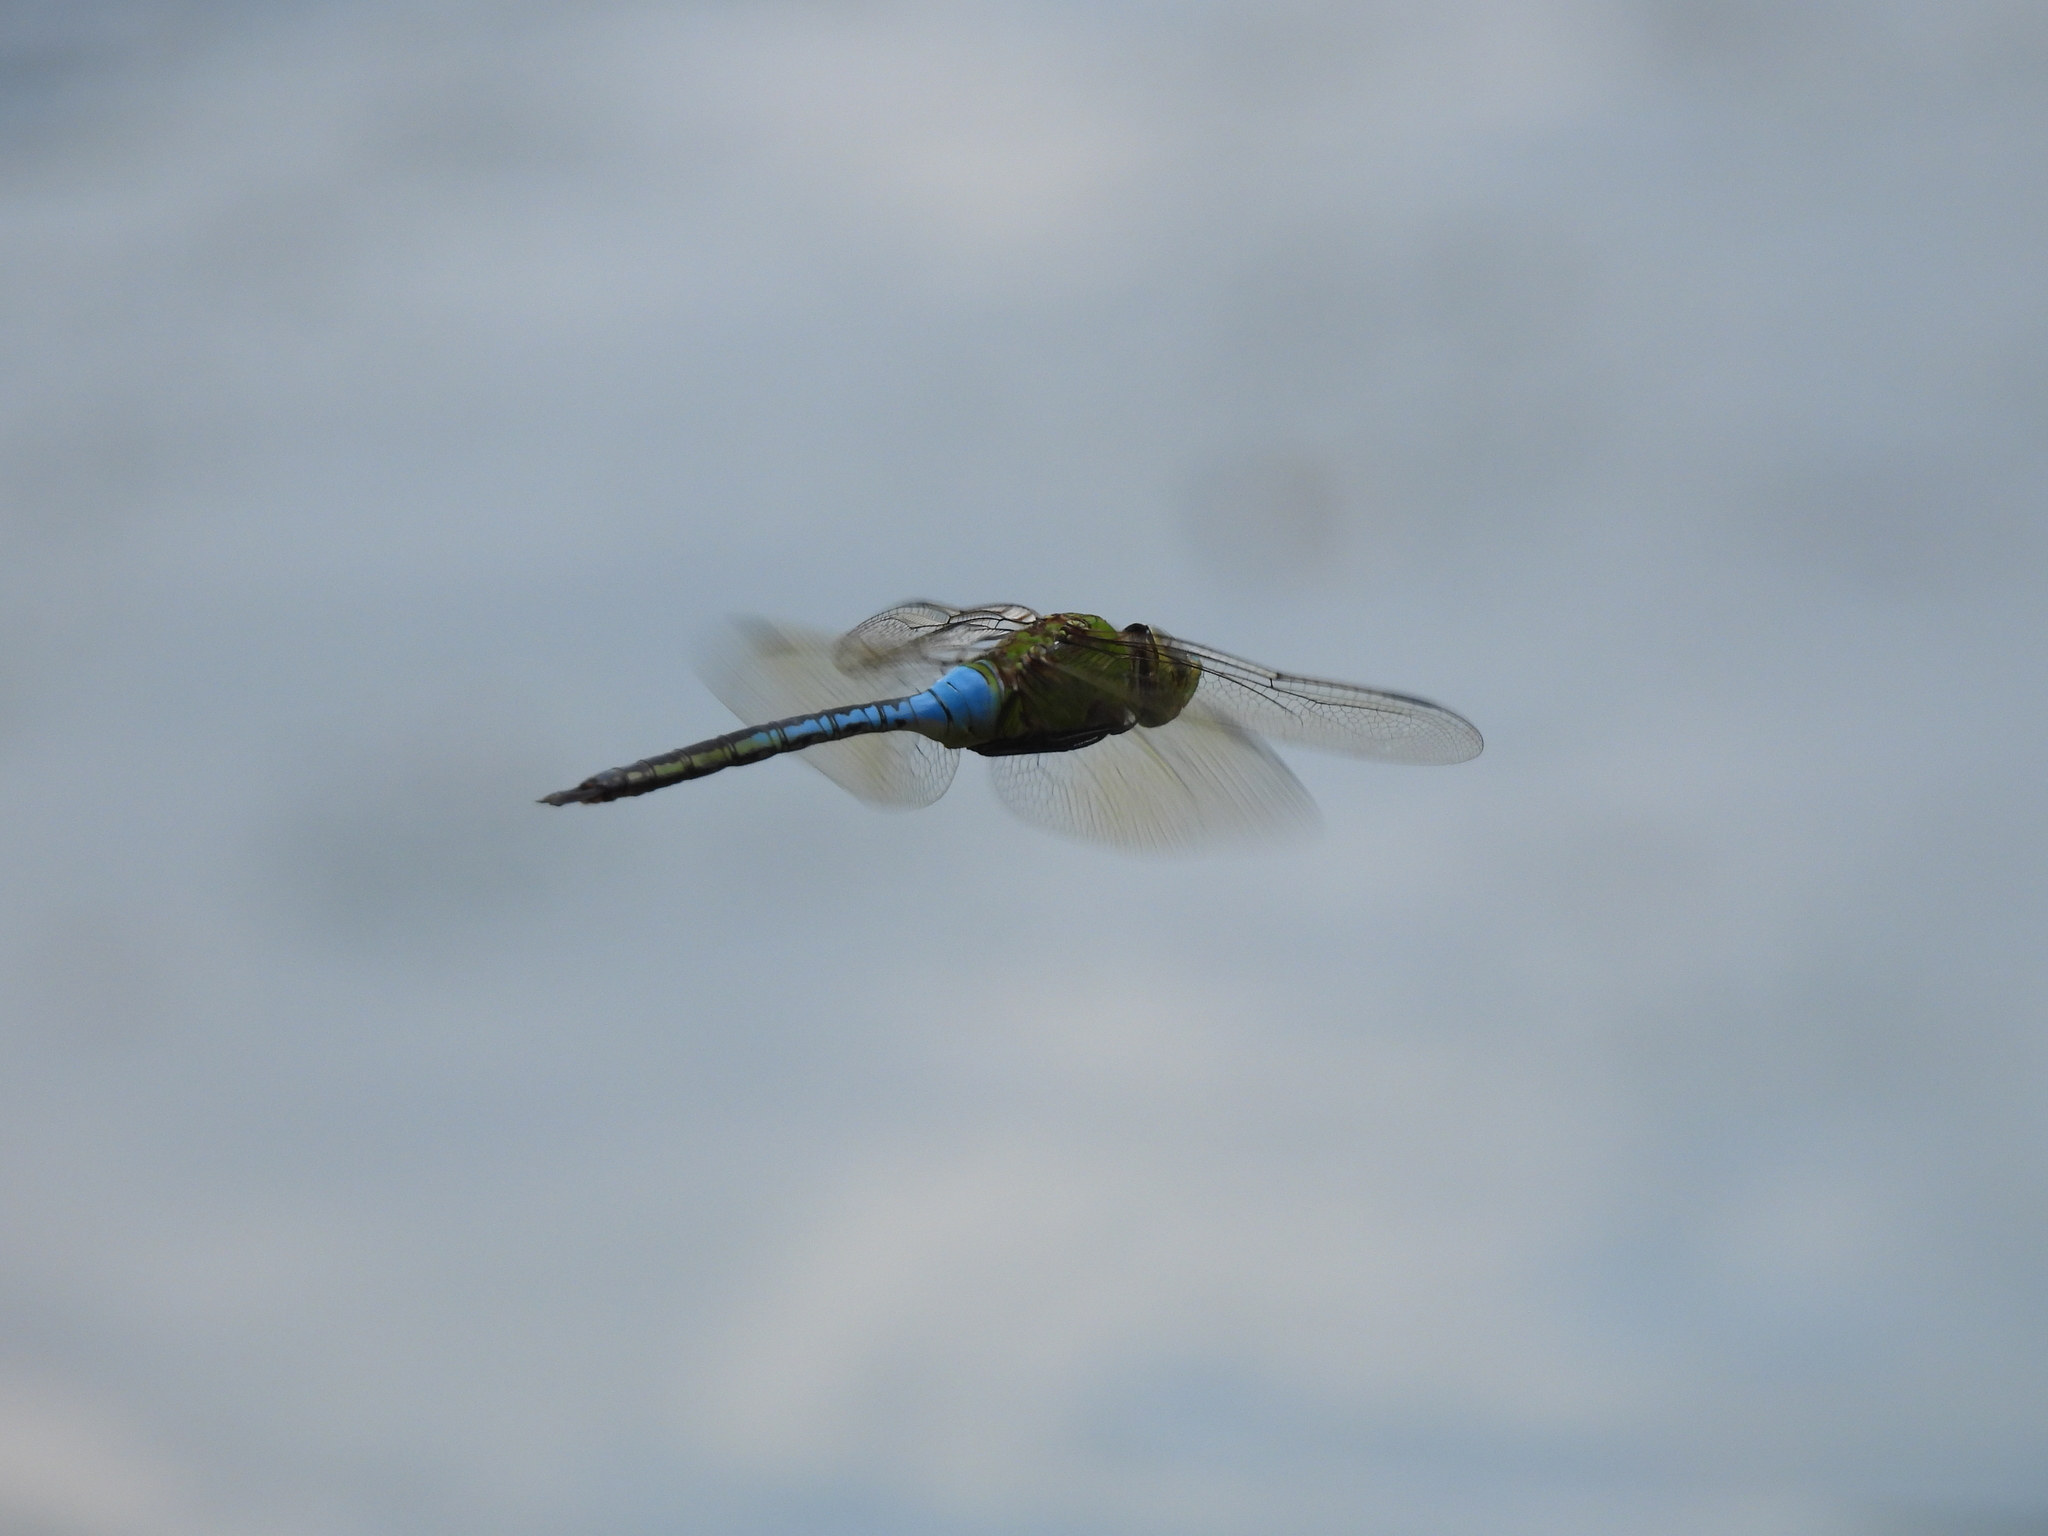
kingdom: Animalia
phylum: Arthropoda
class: Insecta
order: Odonata
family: Aeshnidae
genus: Anax
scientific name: Anax junius
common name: Common green darner
